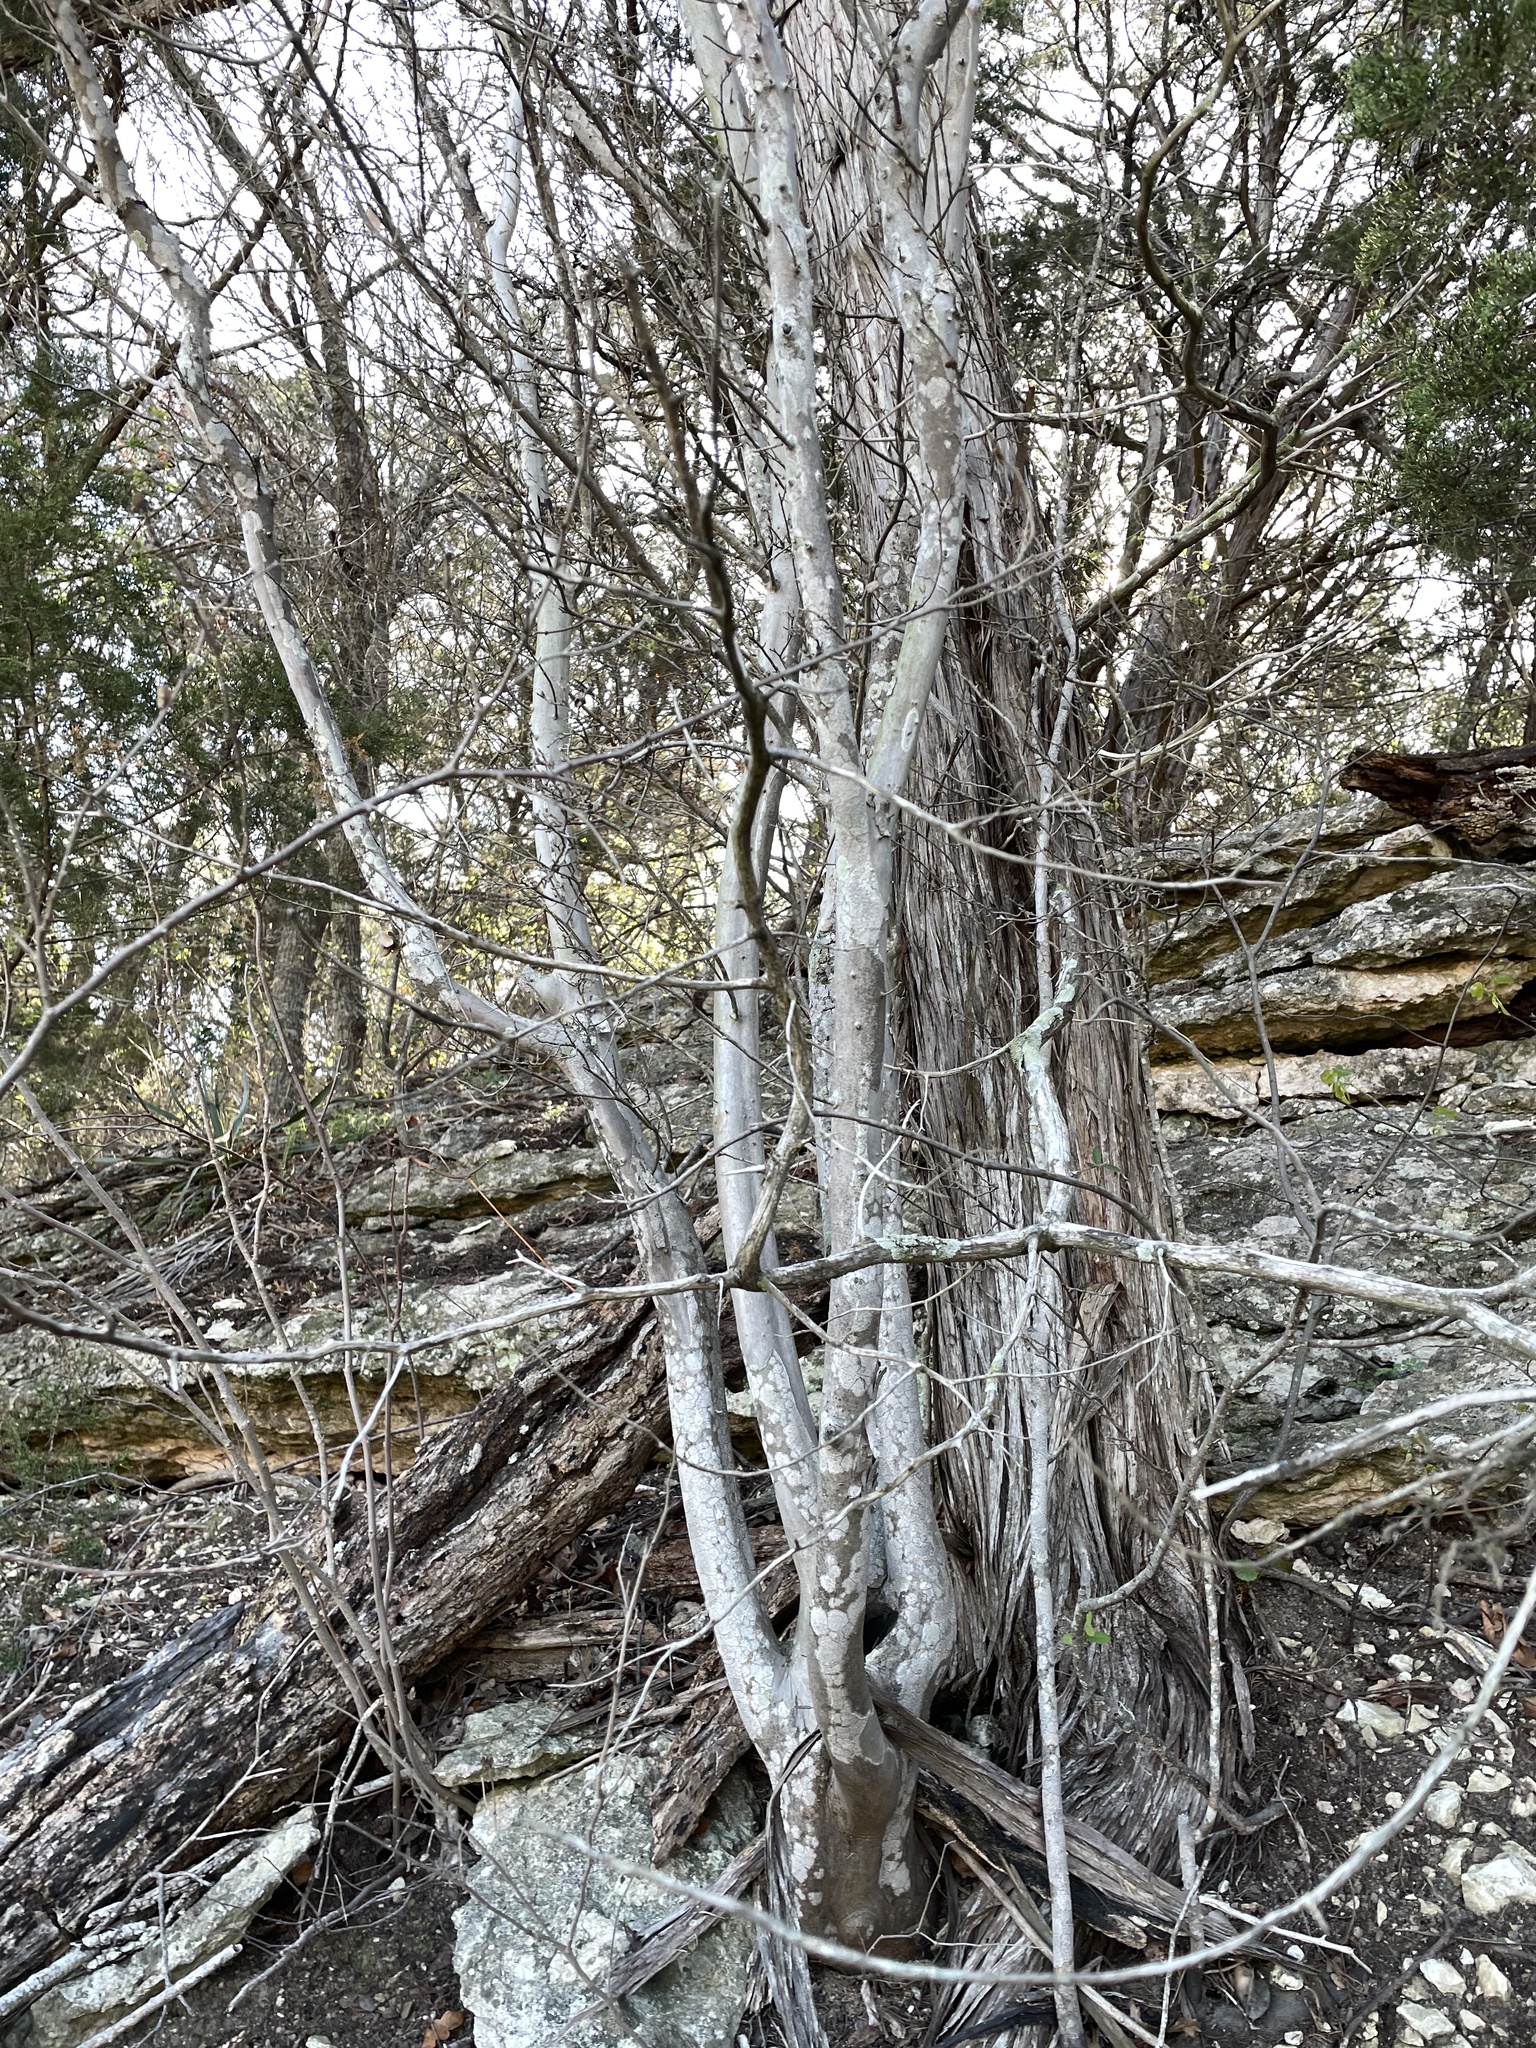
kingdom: Plantae
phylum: Tracheophyta
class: Magnoliopsida
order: Ericales
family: Ebenaceae
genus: Diospyros
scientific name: Diospyros texana
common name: Texas persimmon
